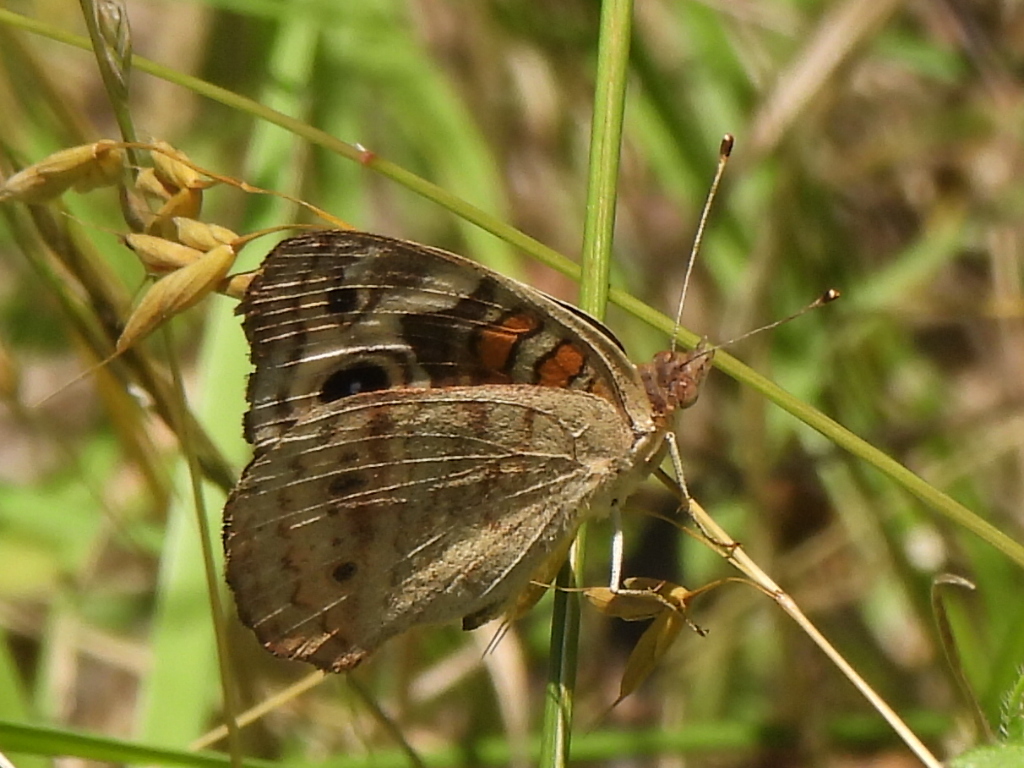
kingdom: Animalia
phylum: Arthropoda
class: Insecta
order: Lepidoptera
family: Nymphalidae
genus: Junonia
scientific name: Junonia coenia
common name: Common buckeye
